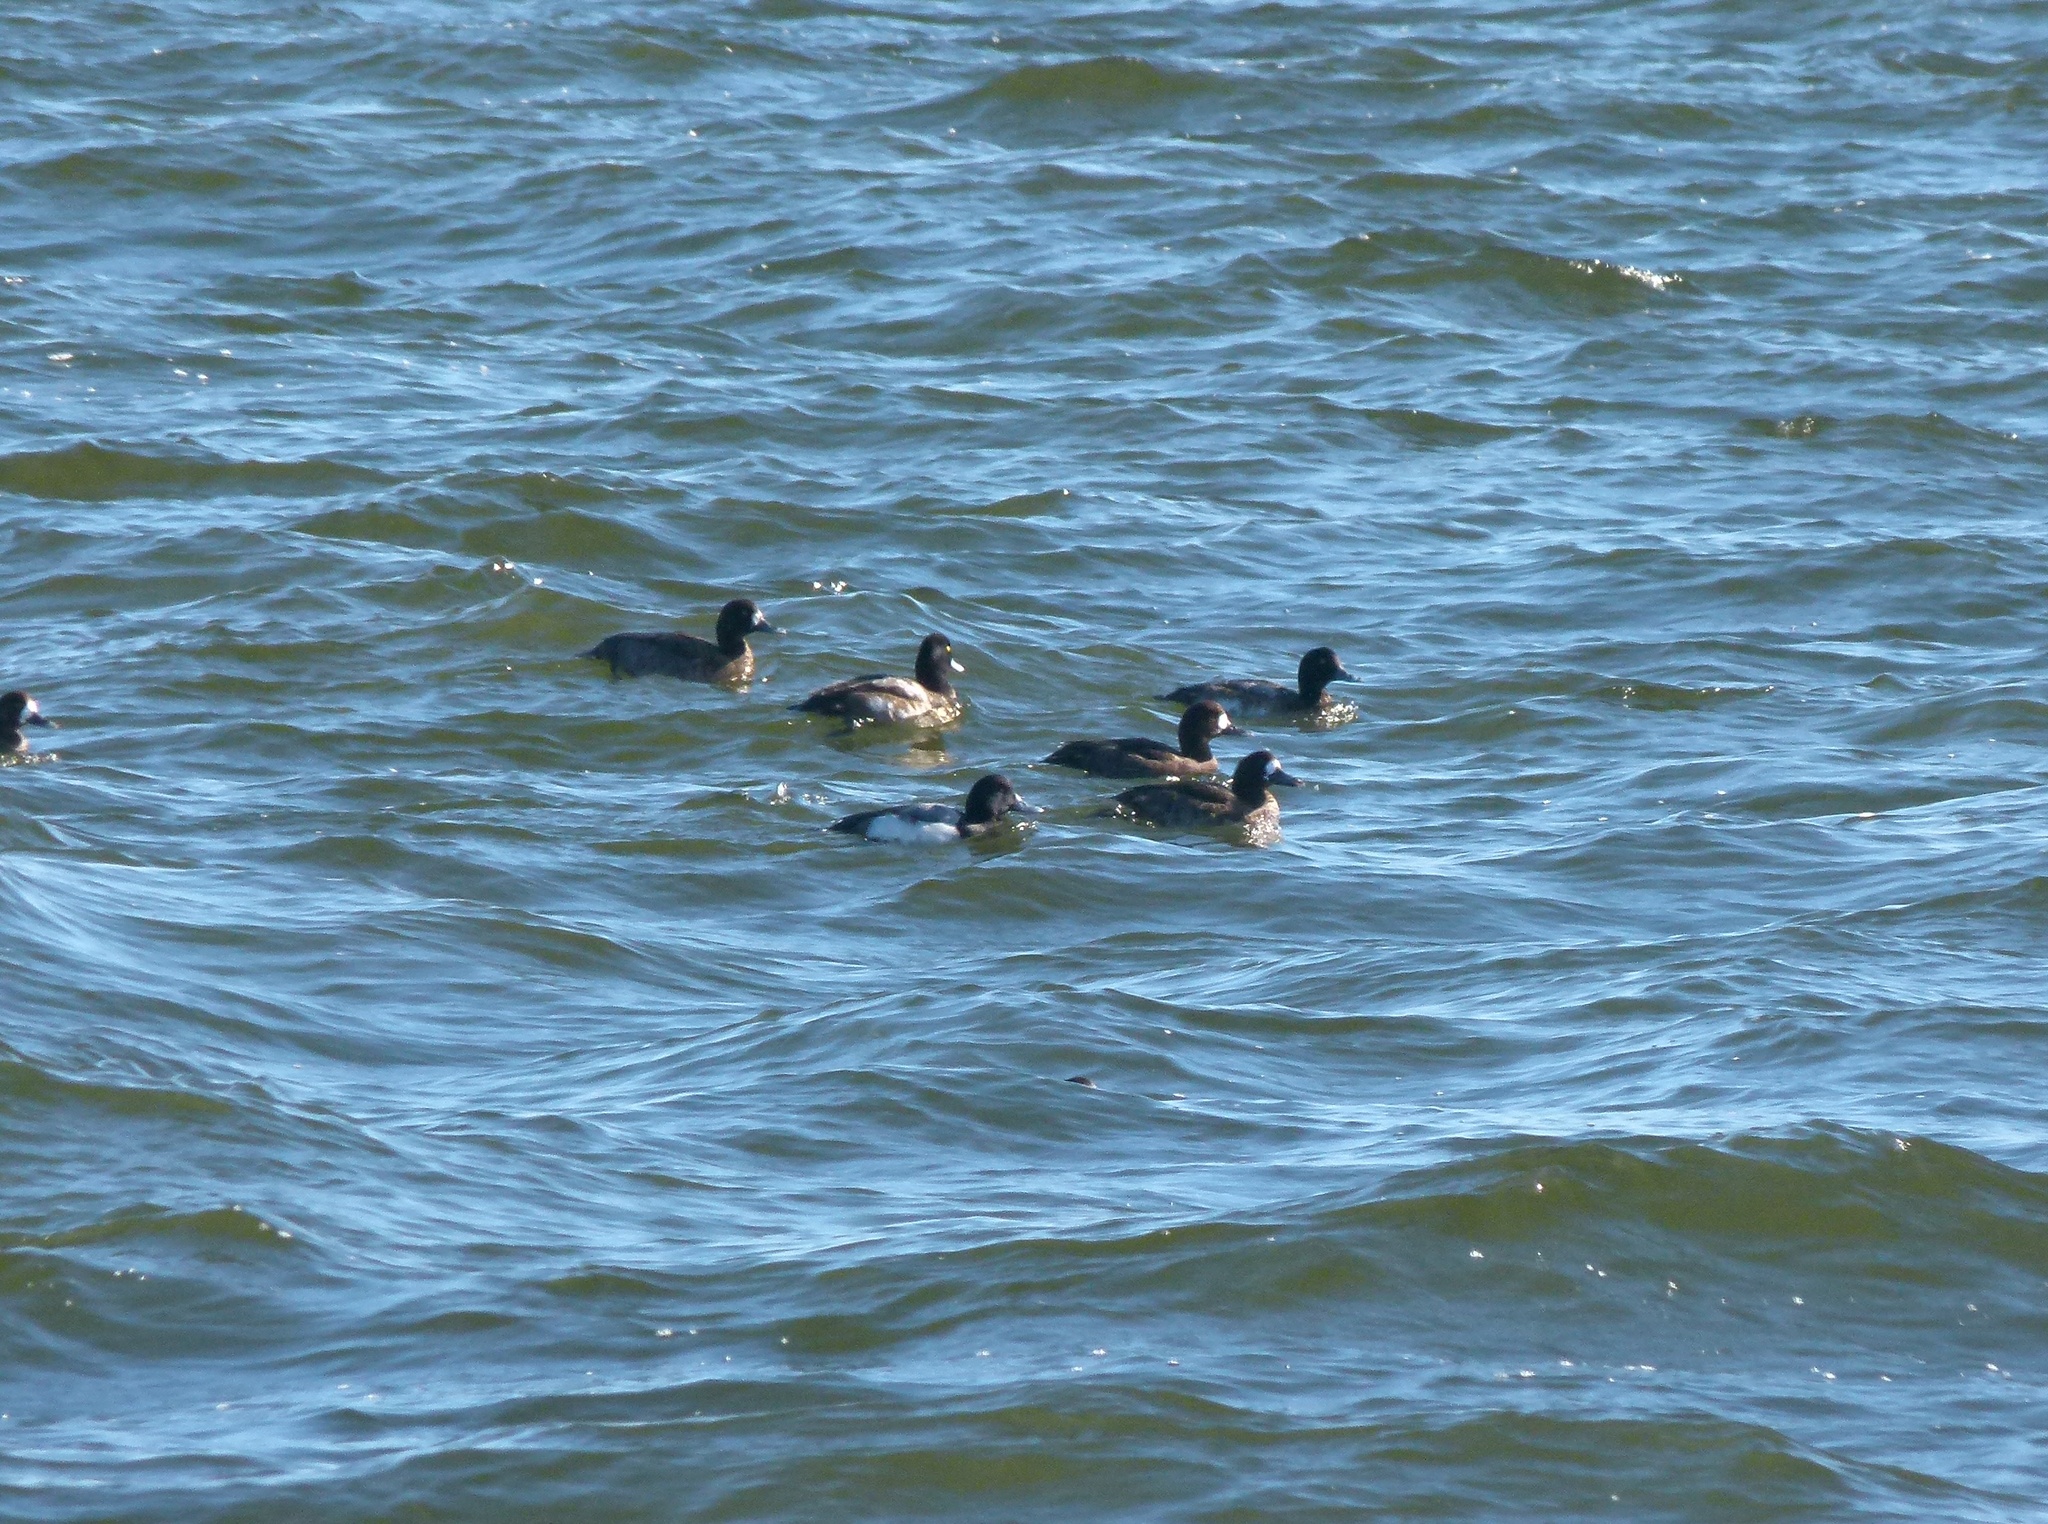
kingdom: Animalia
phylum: Chordata
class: Aves
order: Anseriformes
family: Anatidae
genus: Aythya
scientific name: Aythya marila
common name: Greater scaup
